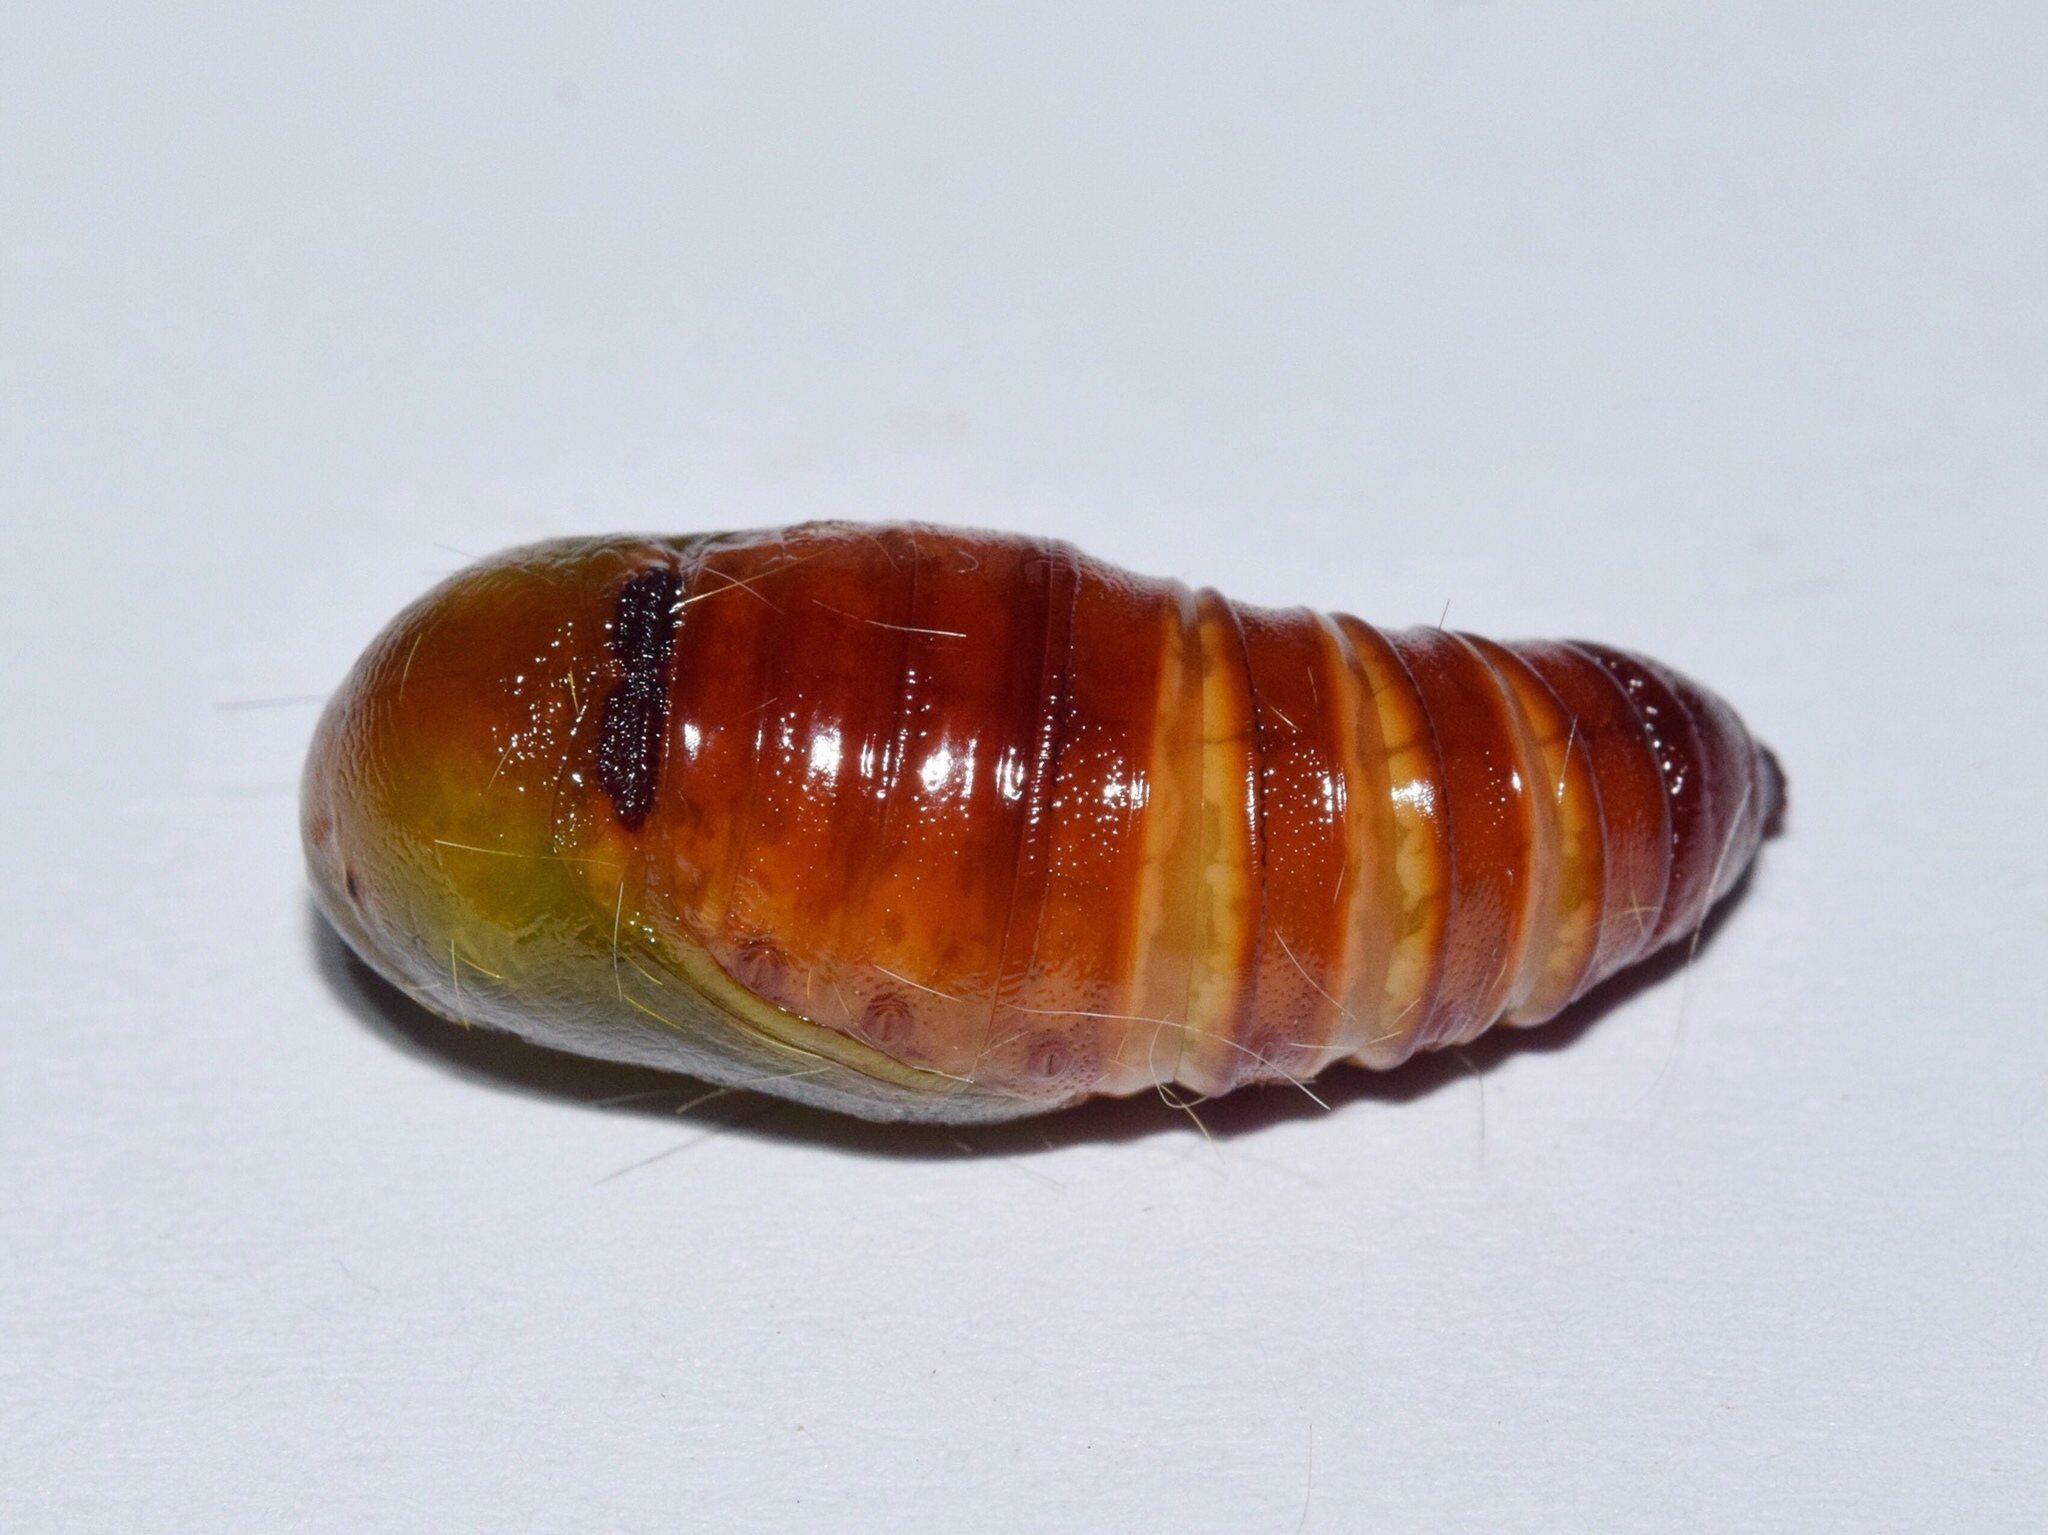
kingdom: Animalia
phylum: Arthropoda
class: Insecta
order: Lepidoptera
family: Eupterotidae
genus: Poloma
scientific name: Poloma angulata
